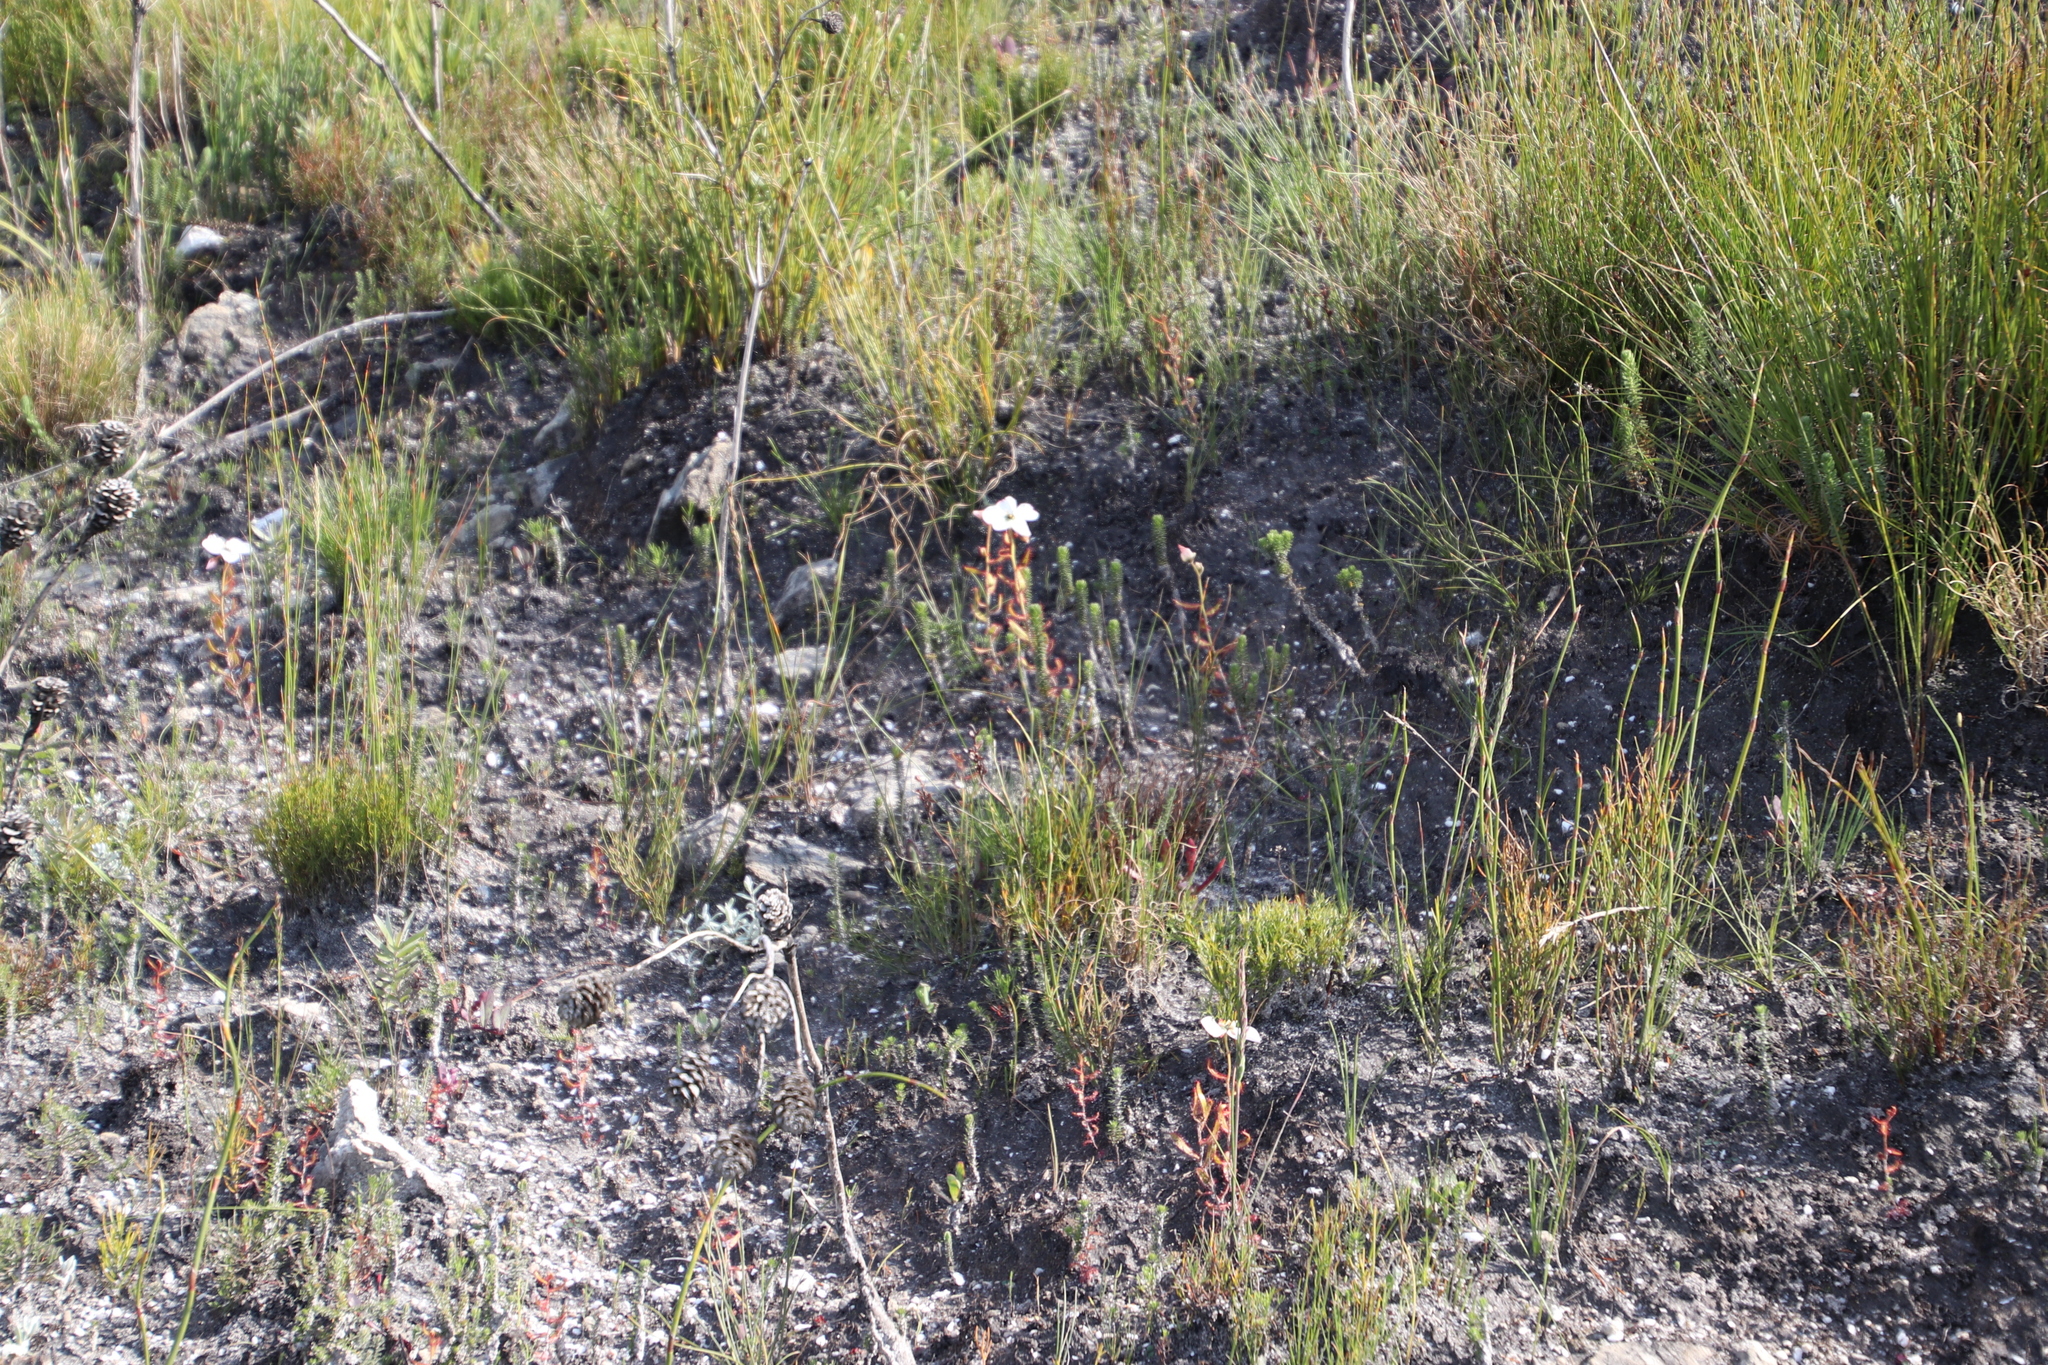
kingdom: Plantae
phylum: Tracheophyta
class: Magnoliopsida
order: Caryophyllales
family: Droseraceae
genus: Drosera
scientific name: Drosera cistiflora
